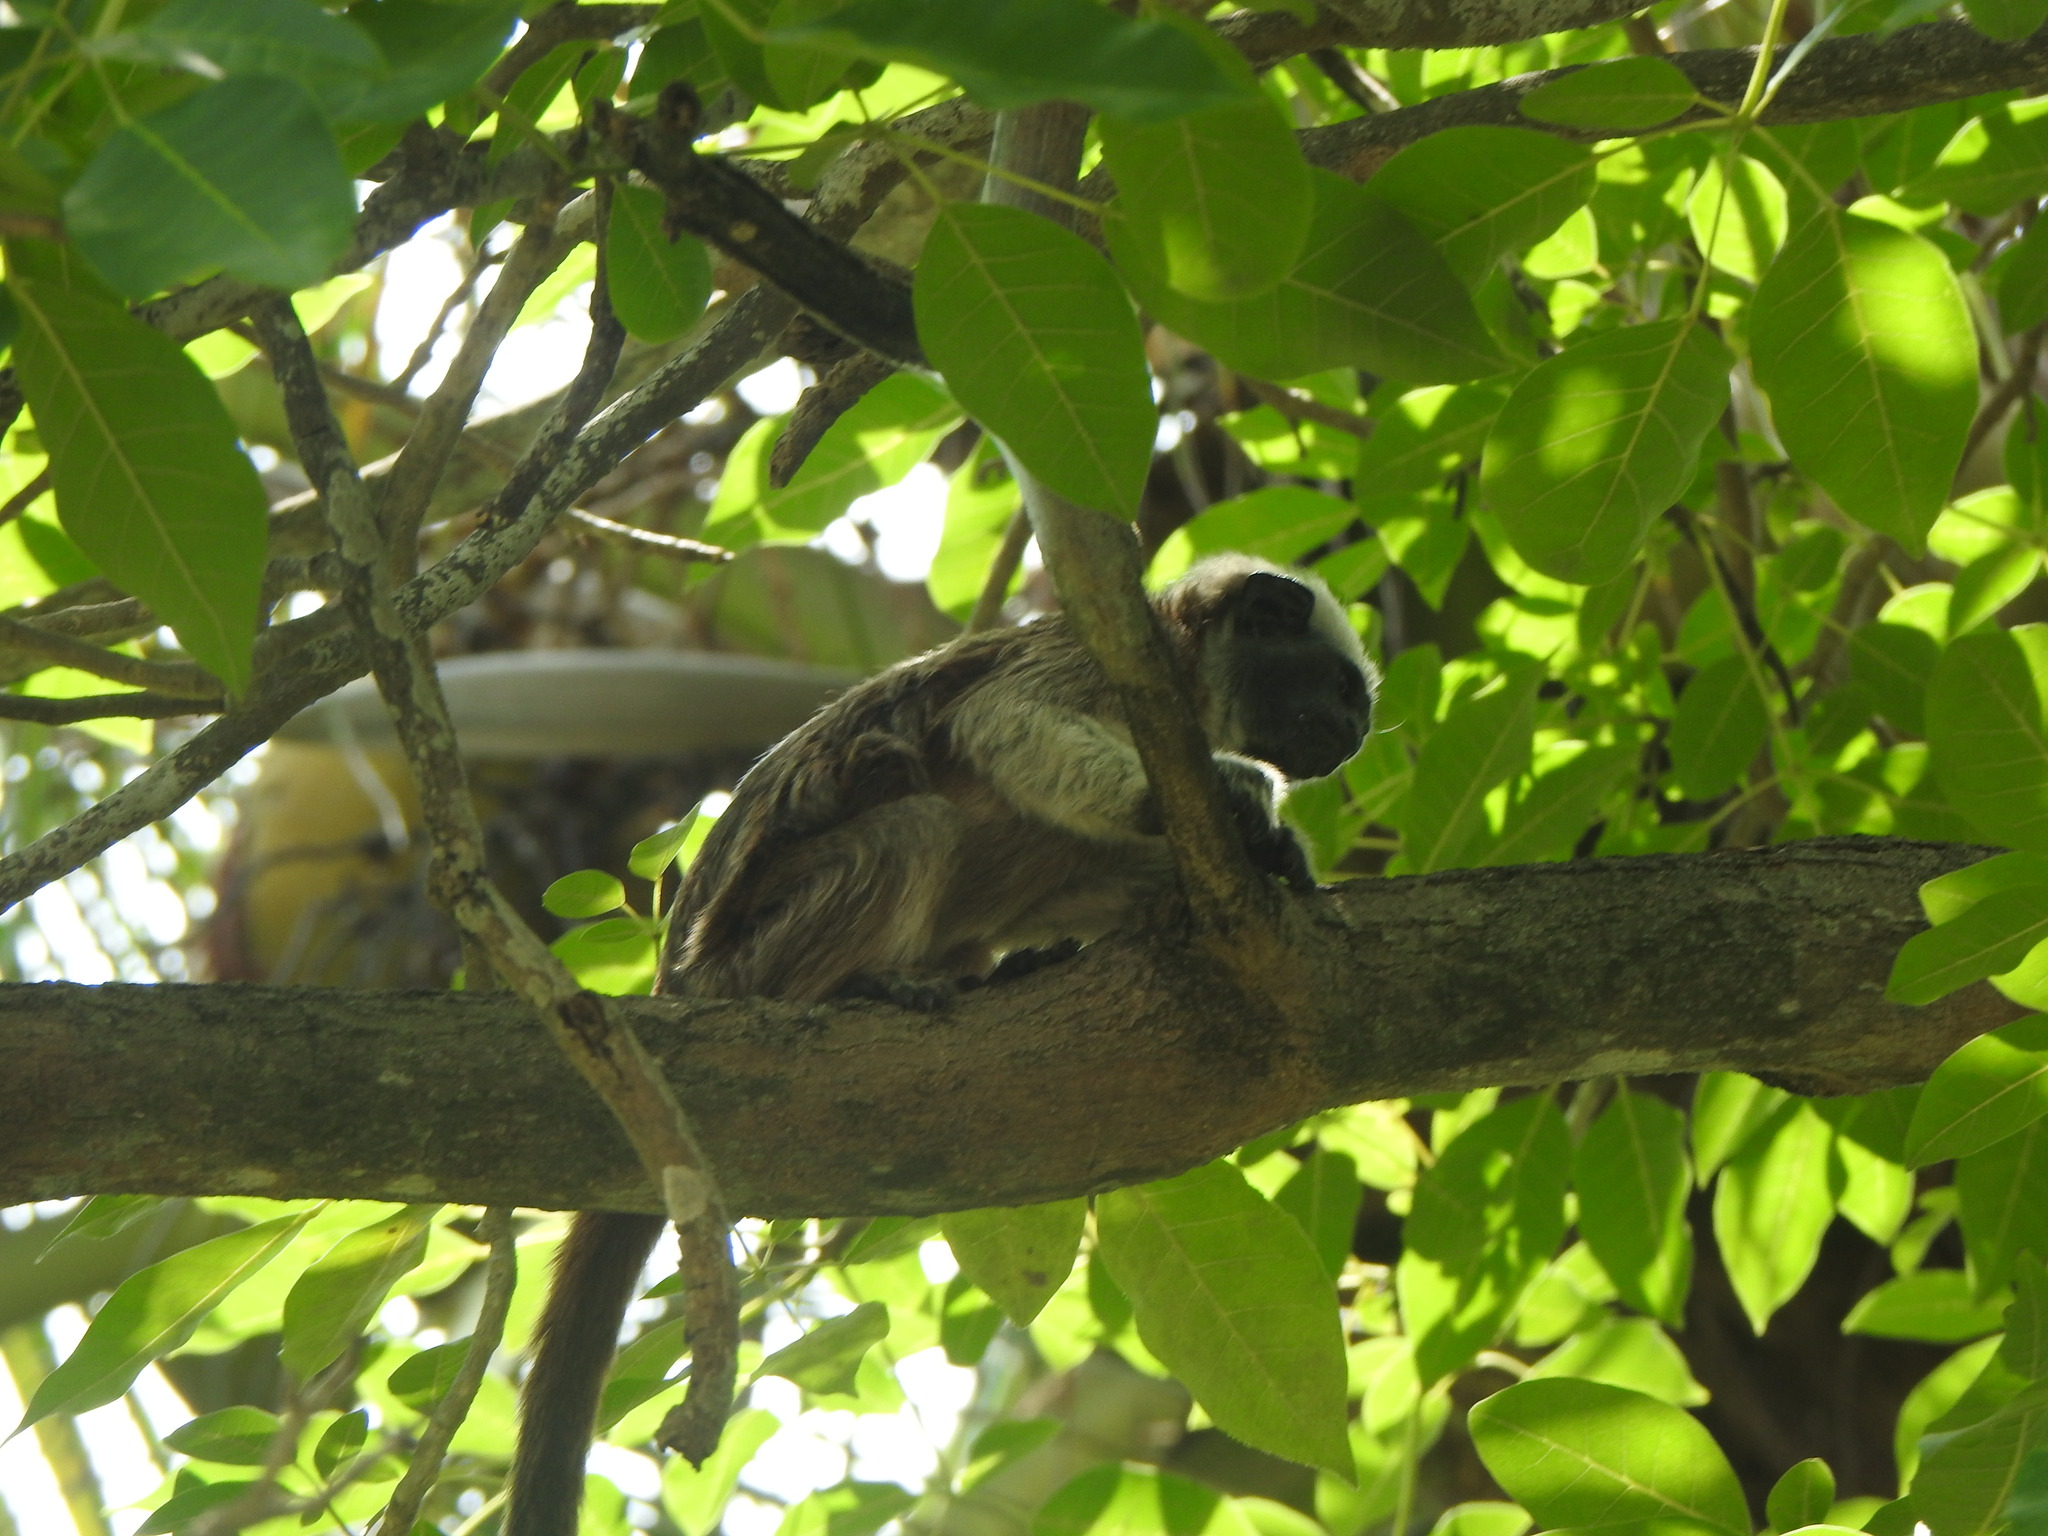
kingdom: Animalia
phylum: Chordata
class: Mammalia
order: Primates
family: Callitrichidae
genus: Saguinus
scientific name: Saguinus oedipus
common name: Cottontop tamarin
